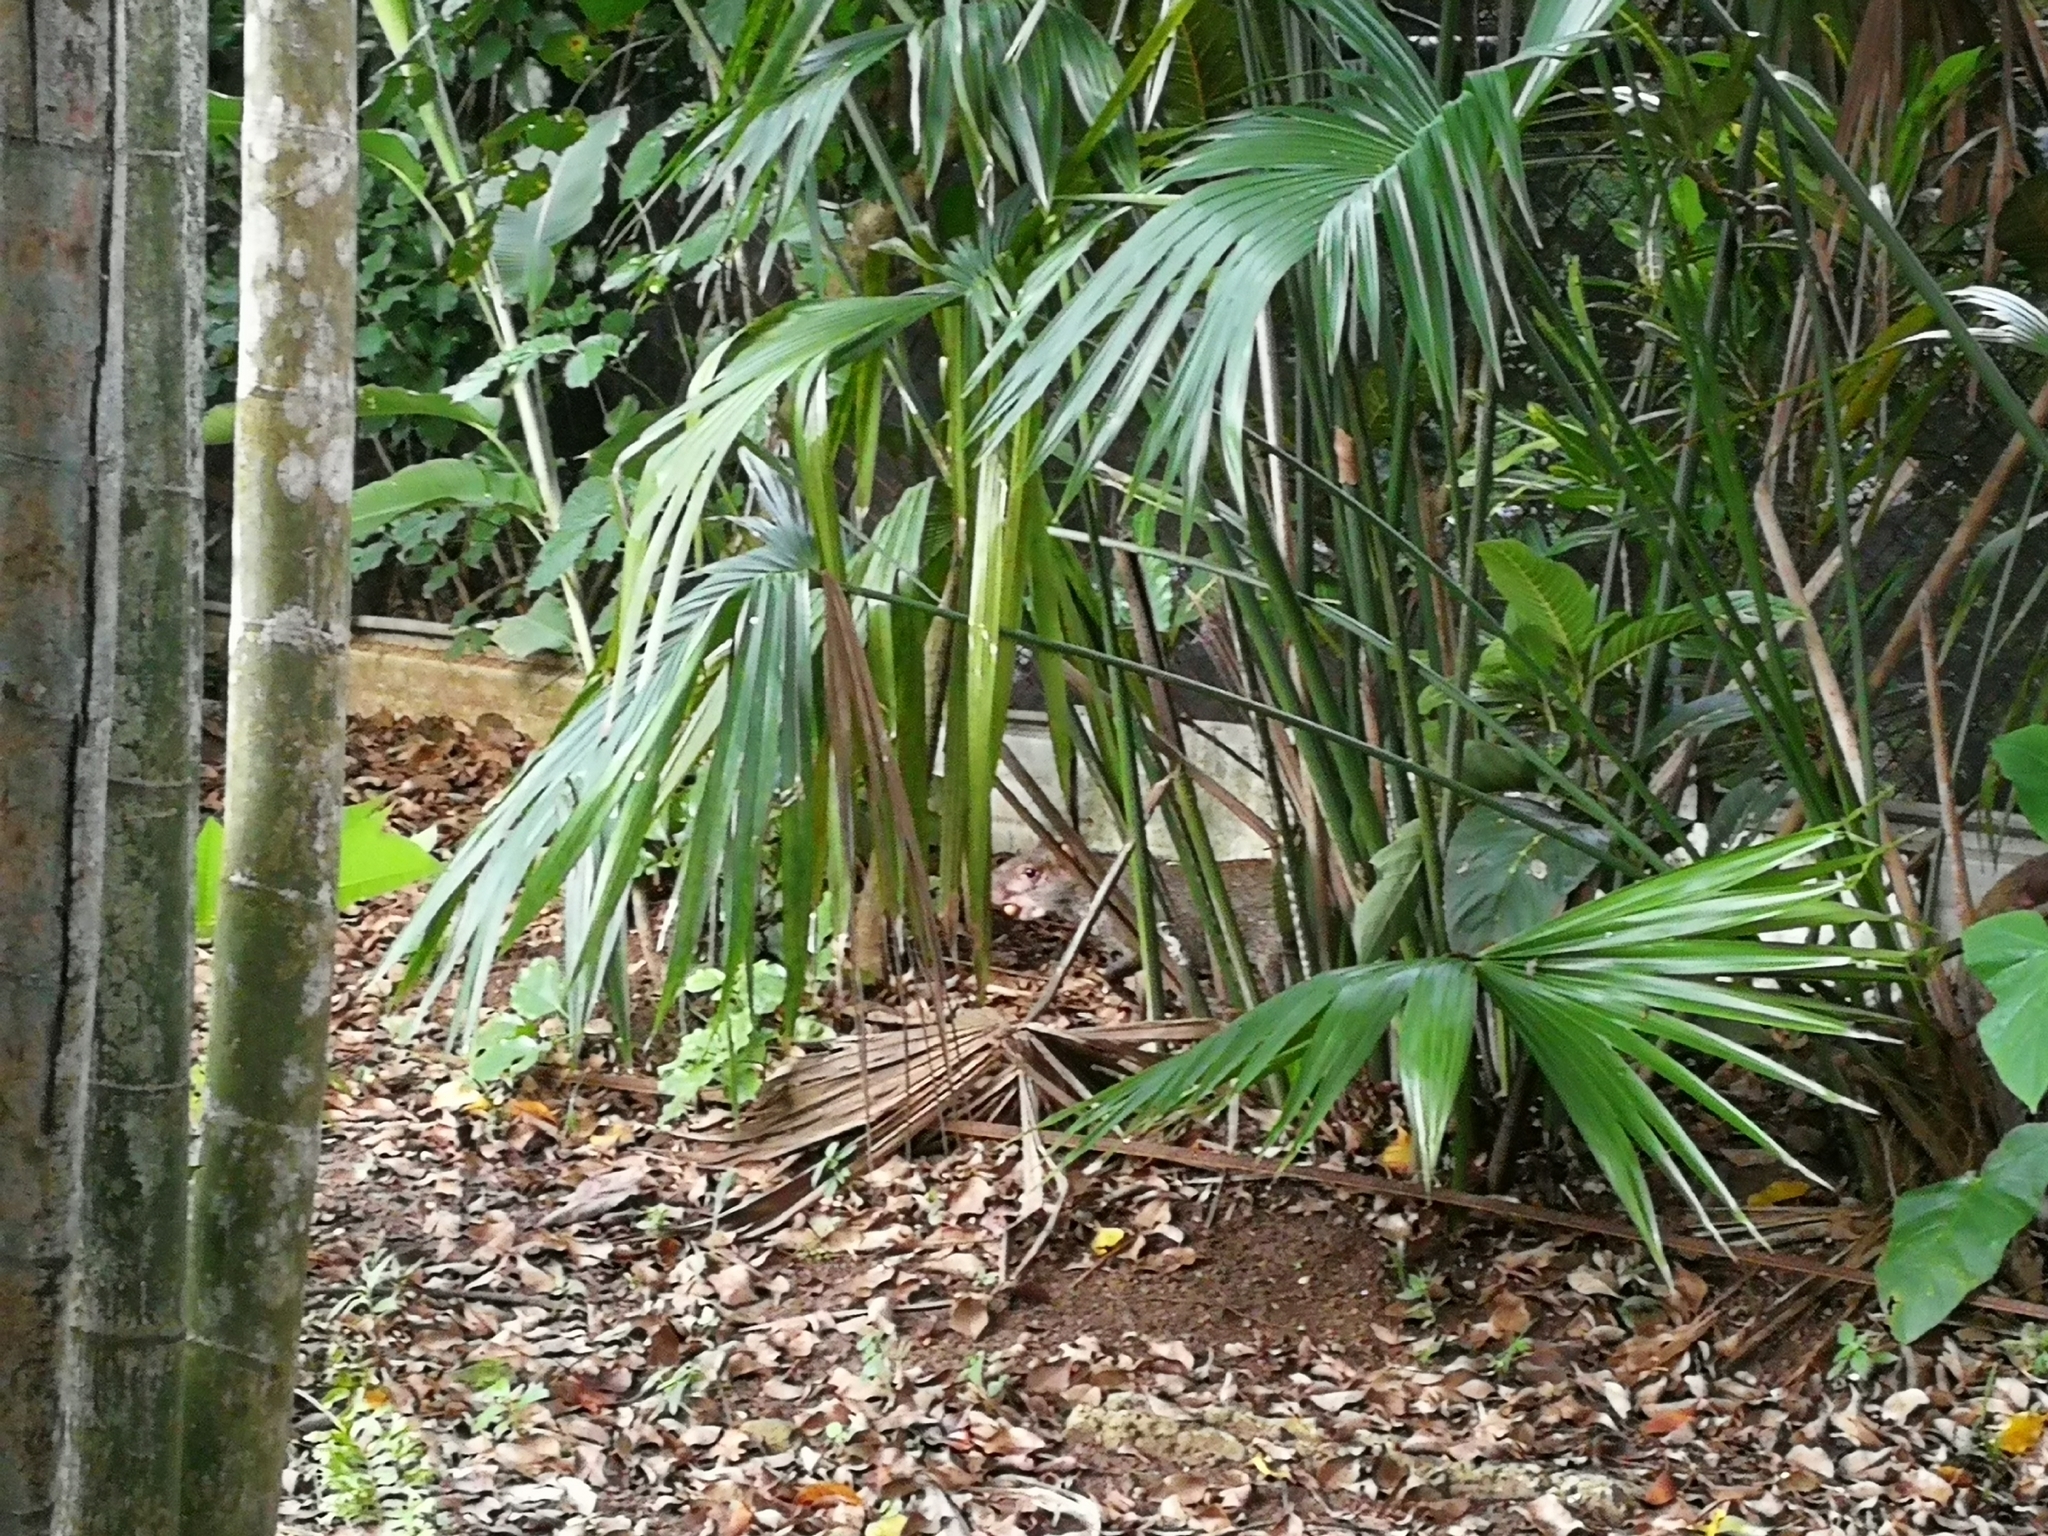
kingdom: Animalia
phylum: Chordata
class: Mammalia
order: Rodentia
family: Dasyproctidae
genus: Dasyprocta
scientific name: Dasyprocta punctata
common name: Central american agouti
